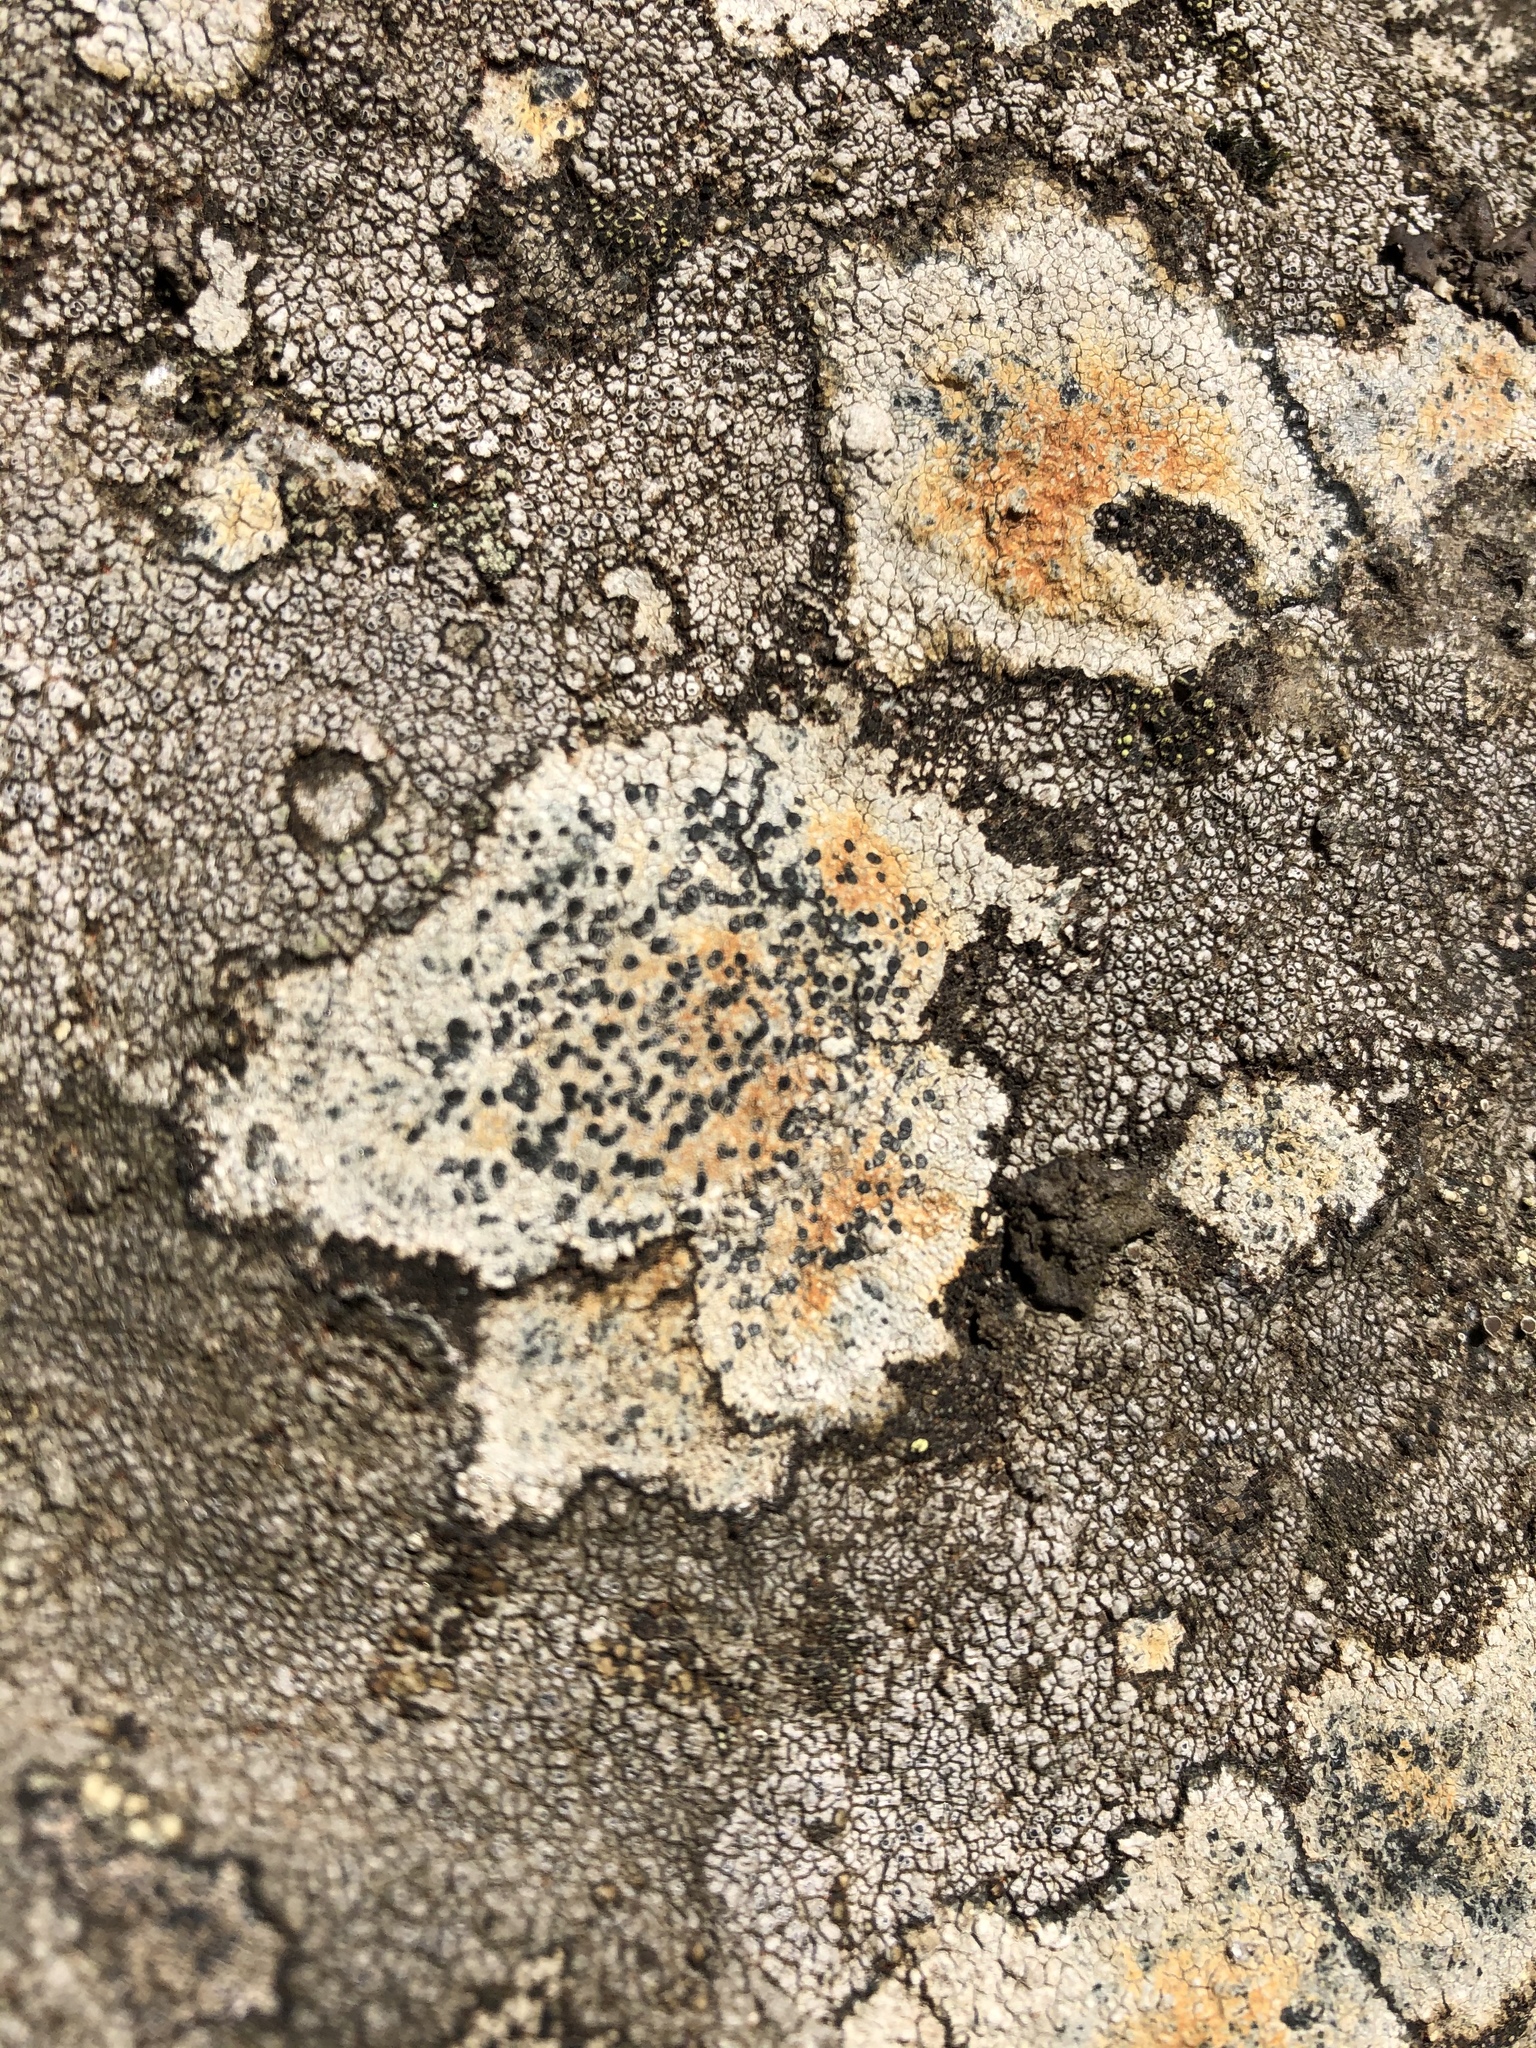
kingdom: Fungi
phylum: Ascomycota
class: Lecanoromycetes
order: Lecideales
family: Lecideaceae
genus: Lecidea
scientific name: Lecidea fuscoatra
